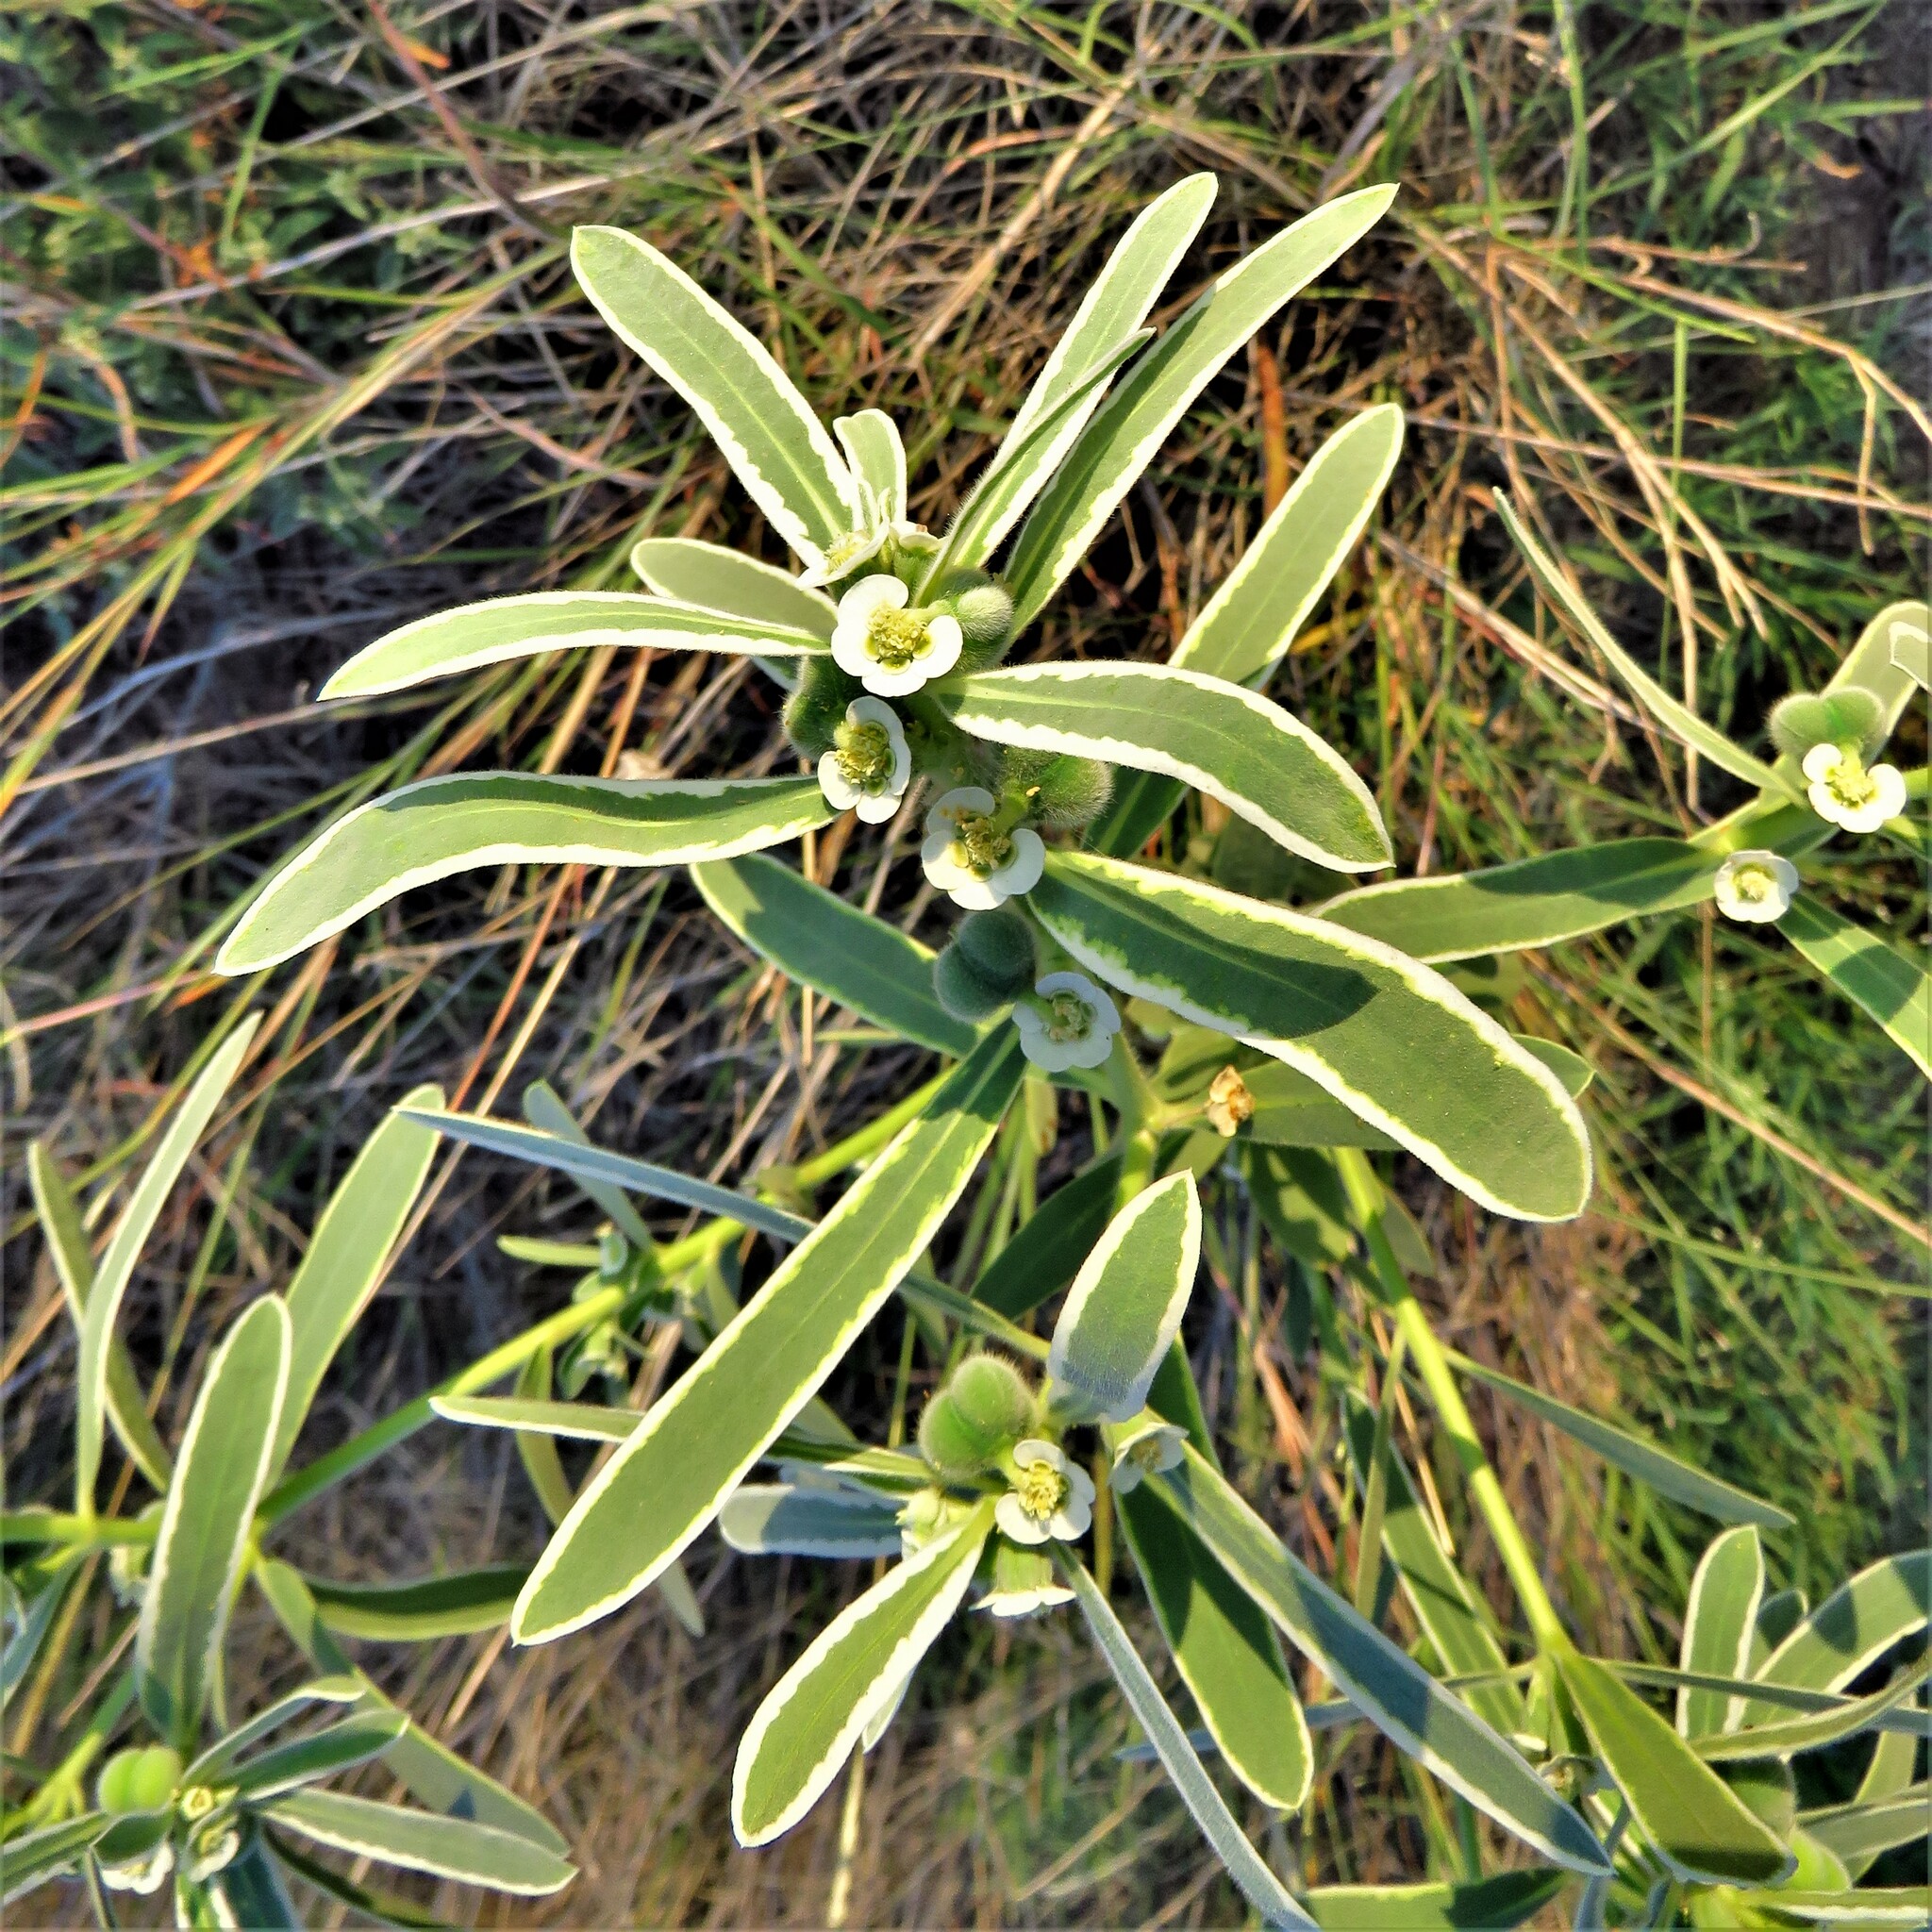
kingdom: Plantae
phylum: Tracheophyta
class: Magnoliopsida
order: Malpighiales
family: Euphorbiaceae
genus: Euphorbia
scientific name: Euphorbia bicolor
